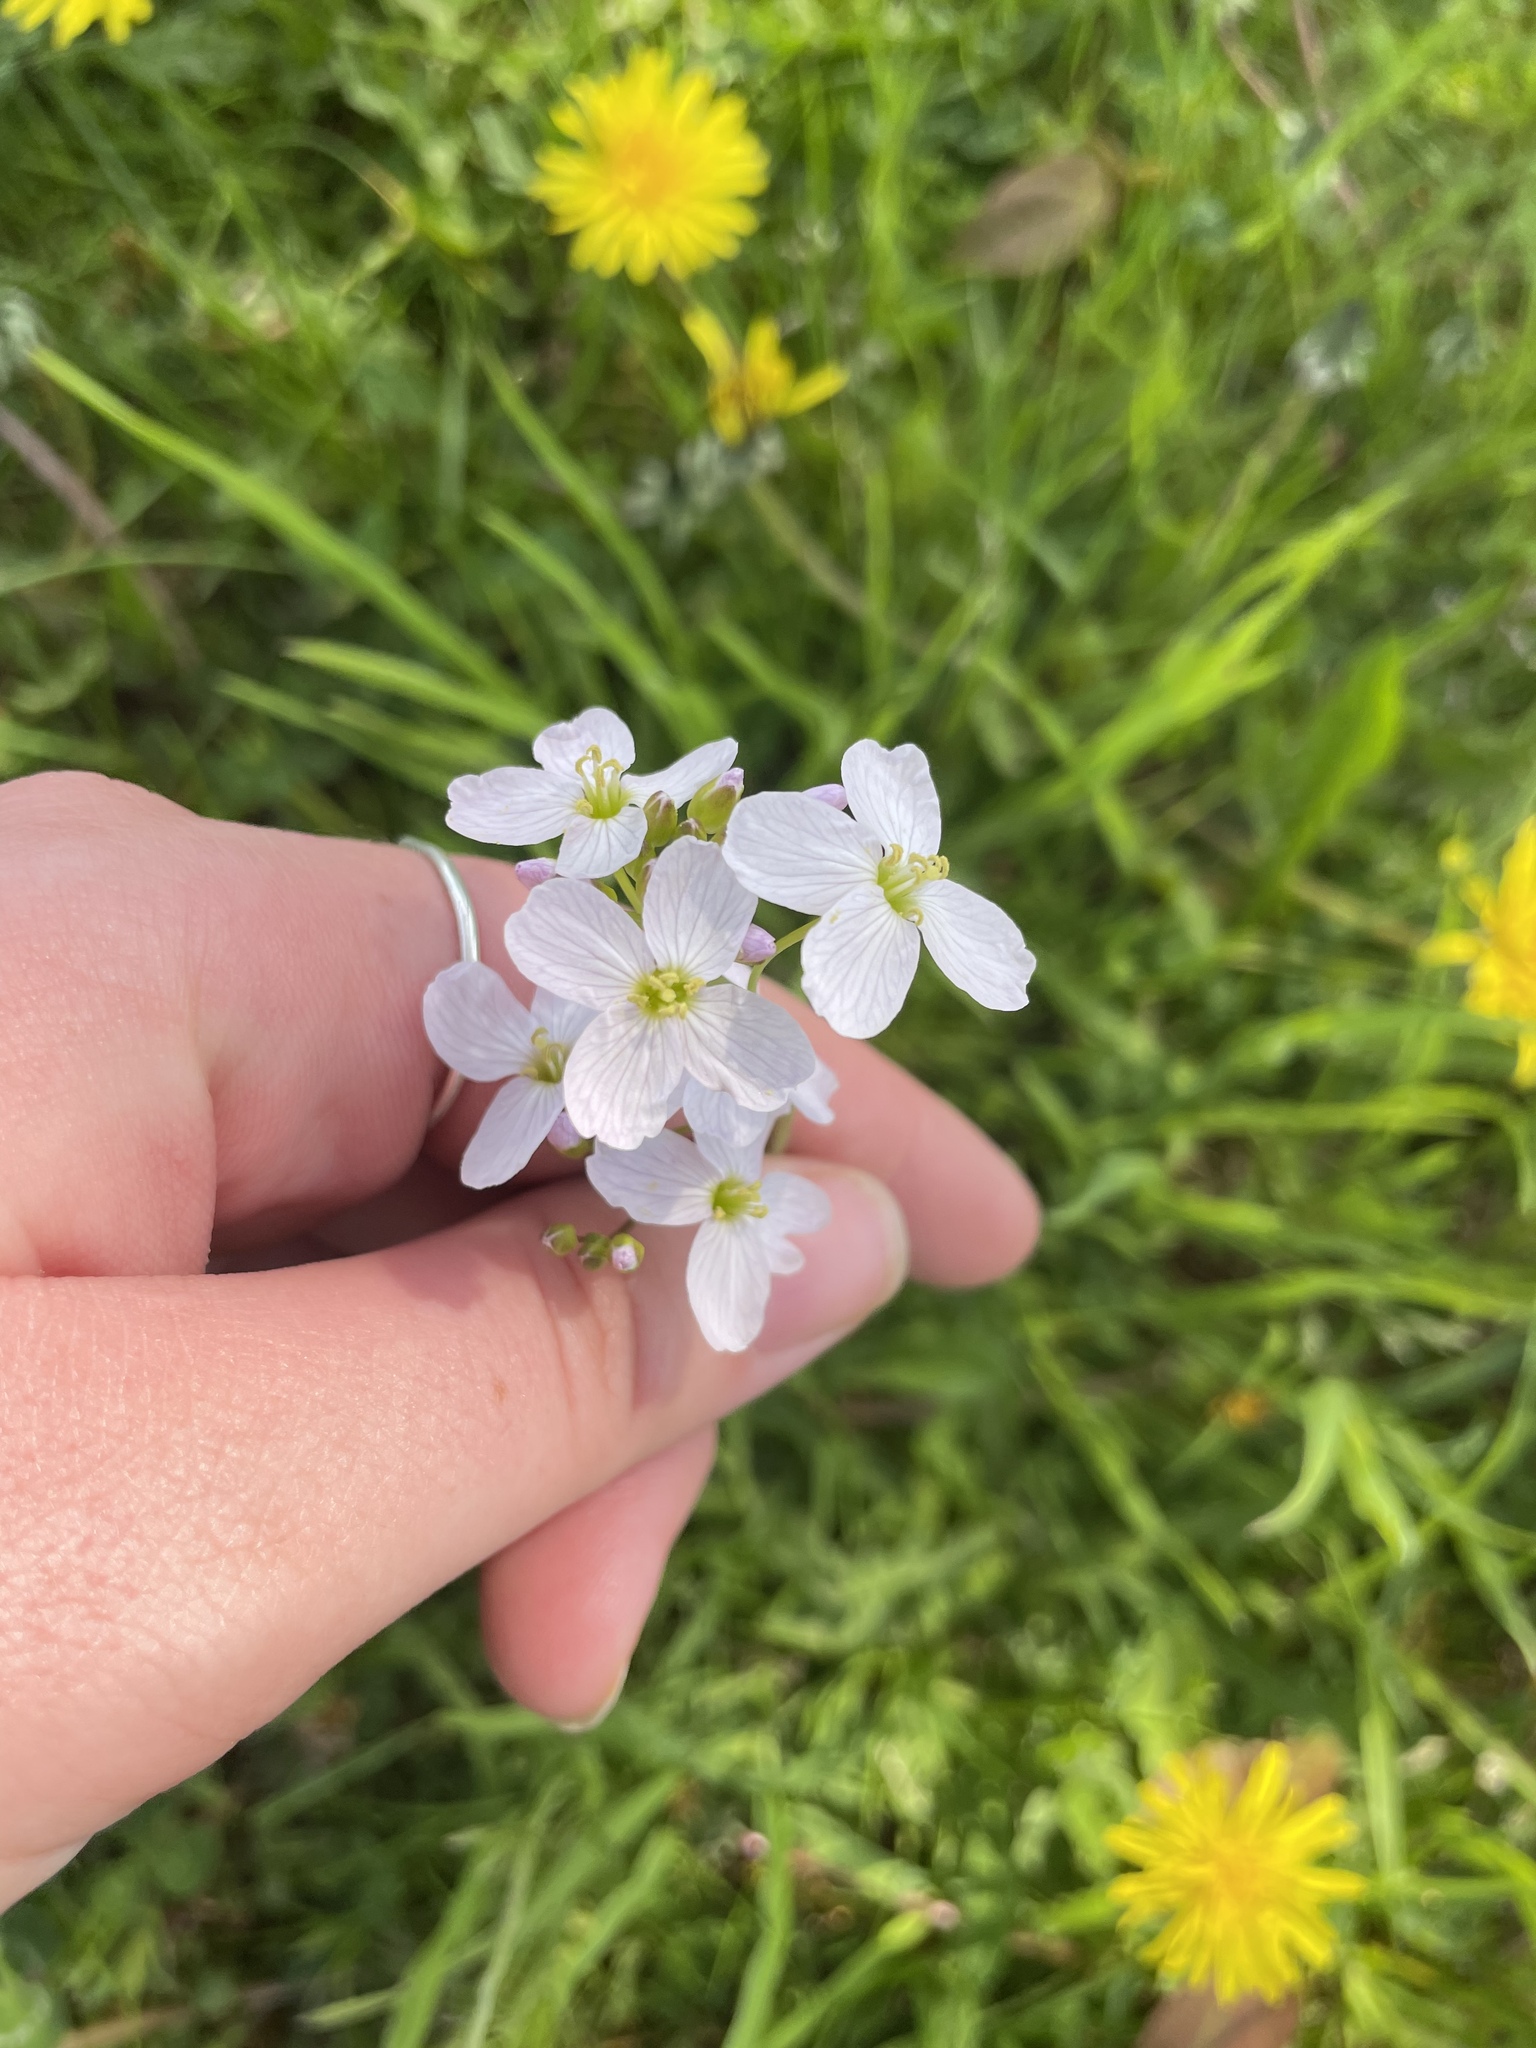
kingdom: Plantae
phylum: Tracheophyta
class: Magnoliopsida
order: Brassicales
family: Brassicaceae
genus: Cardamine
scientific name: Cardamine pratensis
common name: Cuckoo flower
